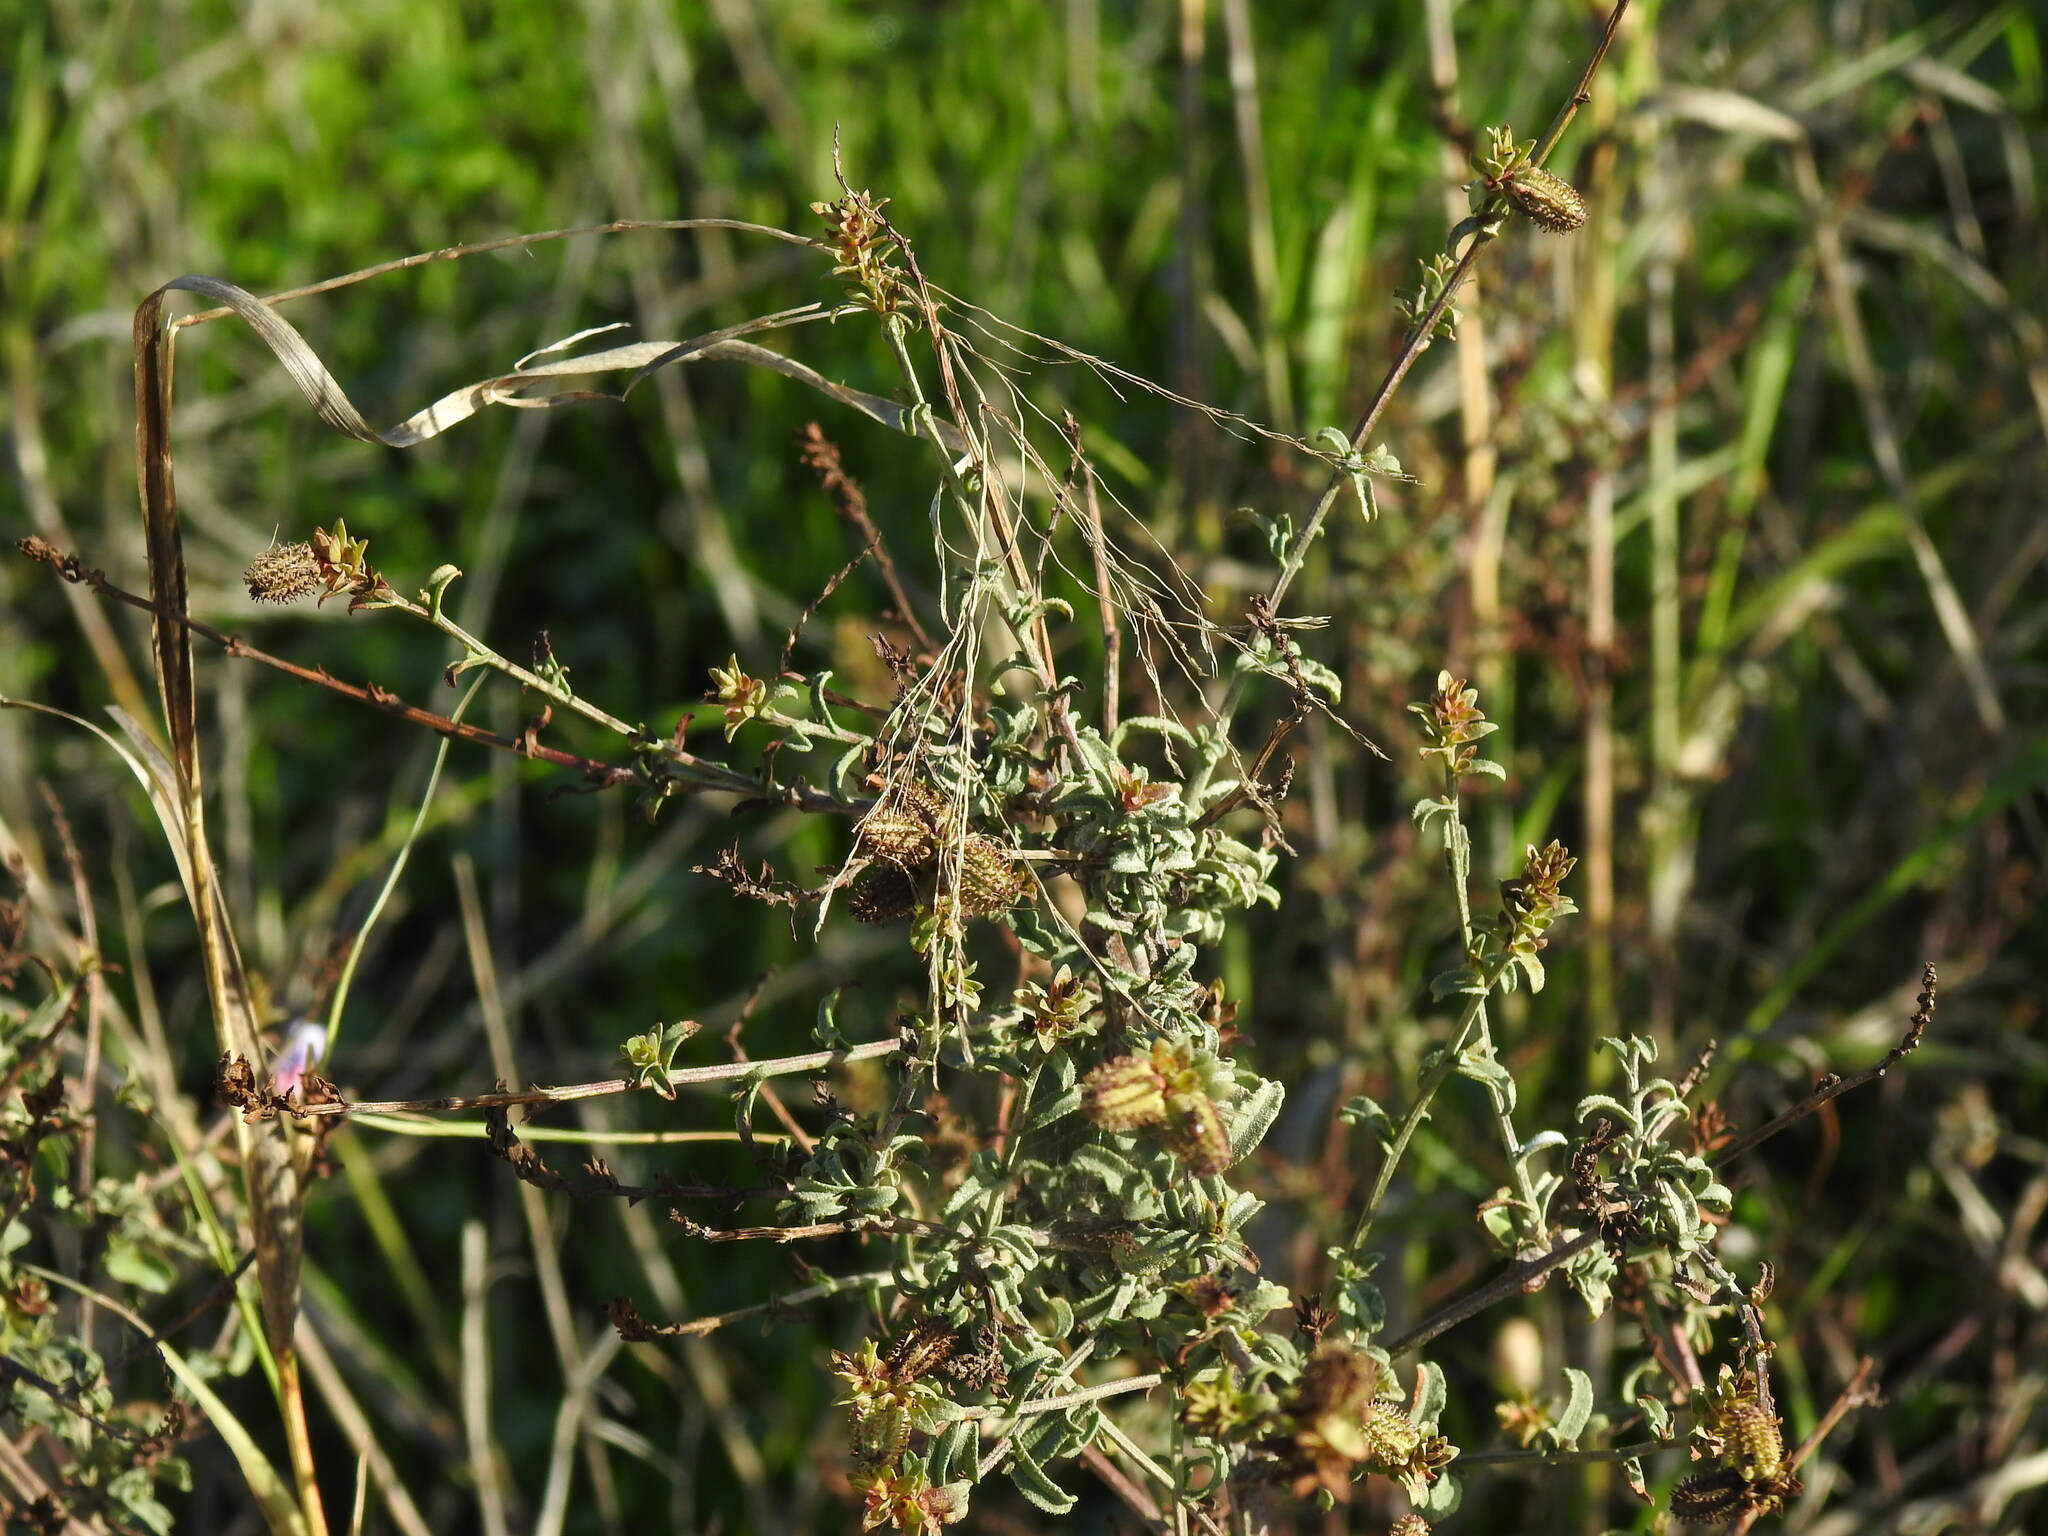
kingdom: Plantae
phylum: Tracheophyta
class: Magnoliopsida
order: Caryophyllales
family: Plumbaginaceae
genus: Plumbago
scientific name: Plumbago europaea
